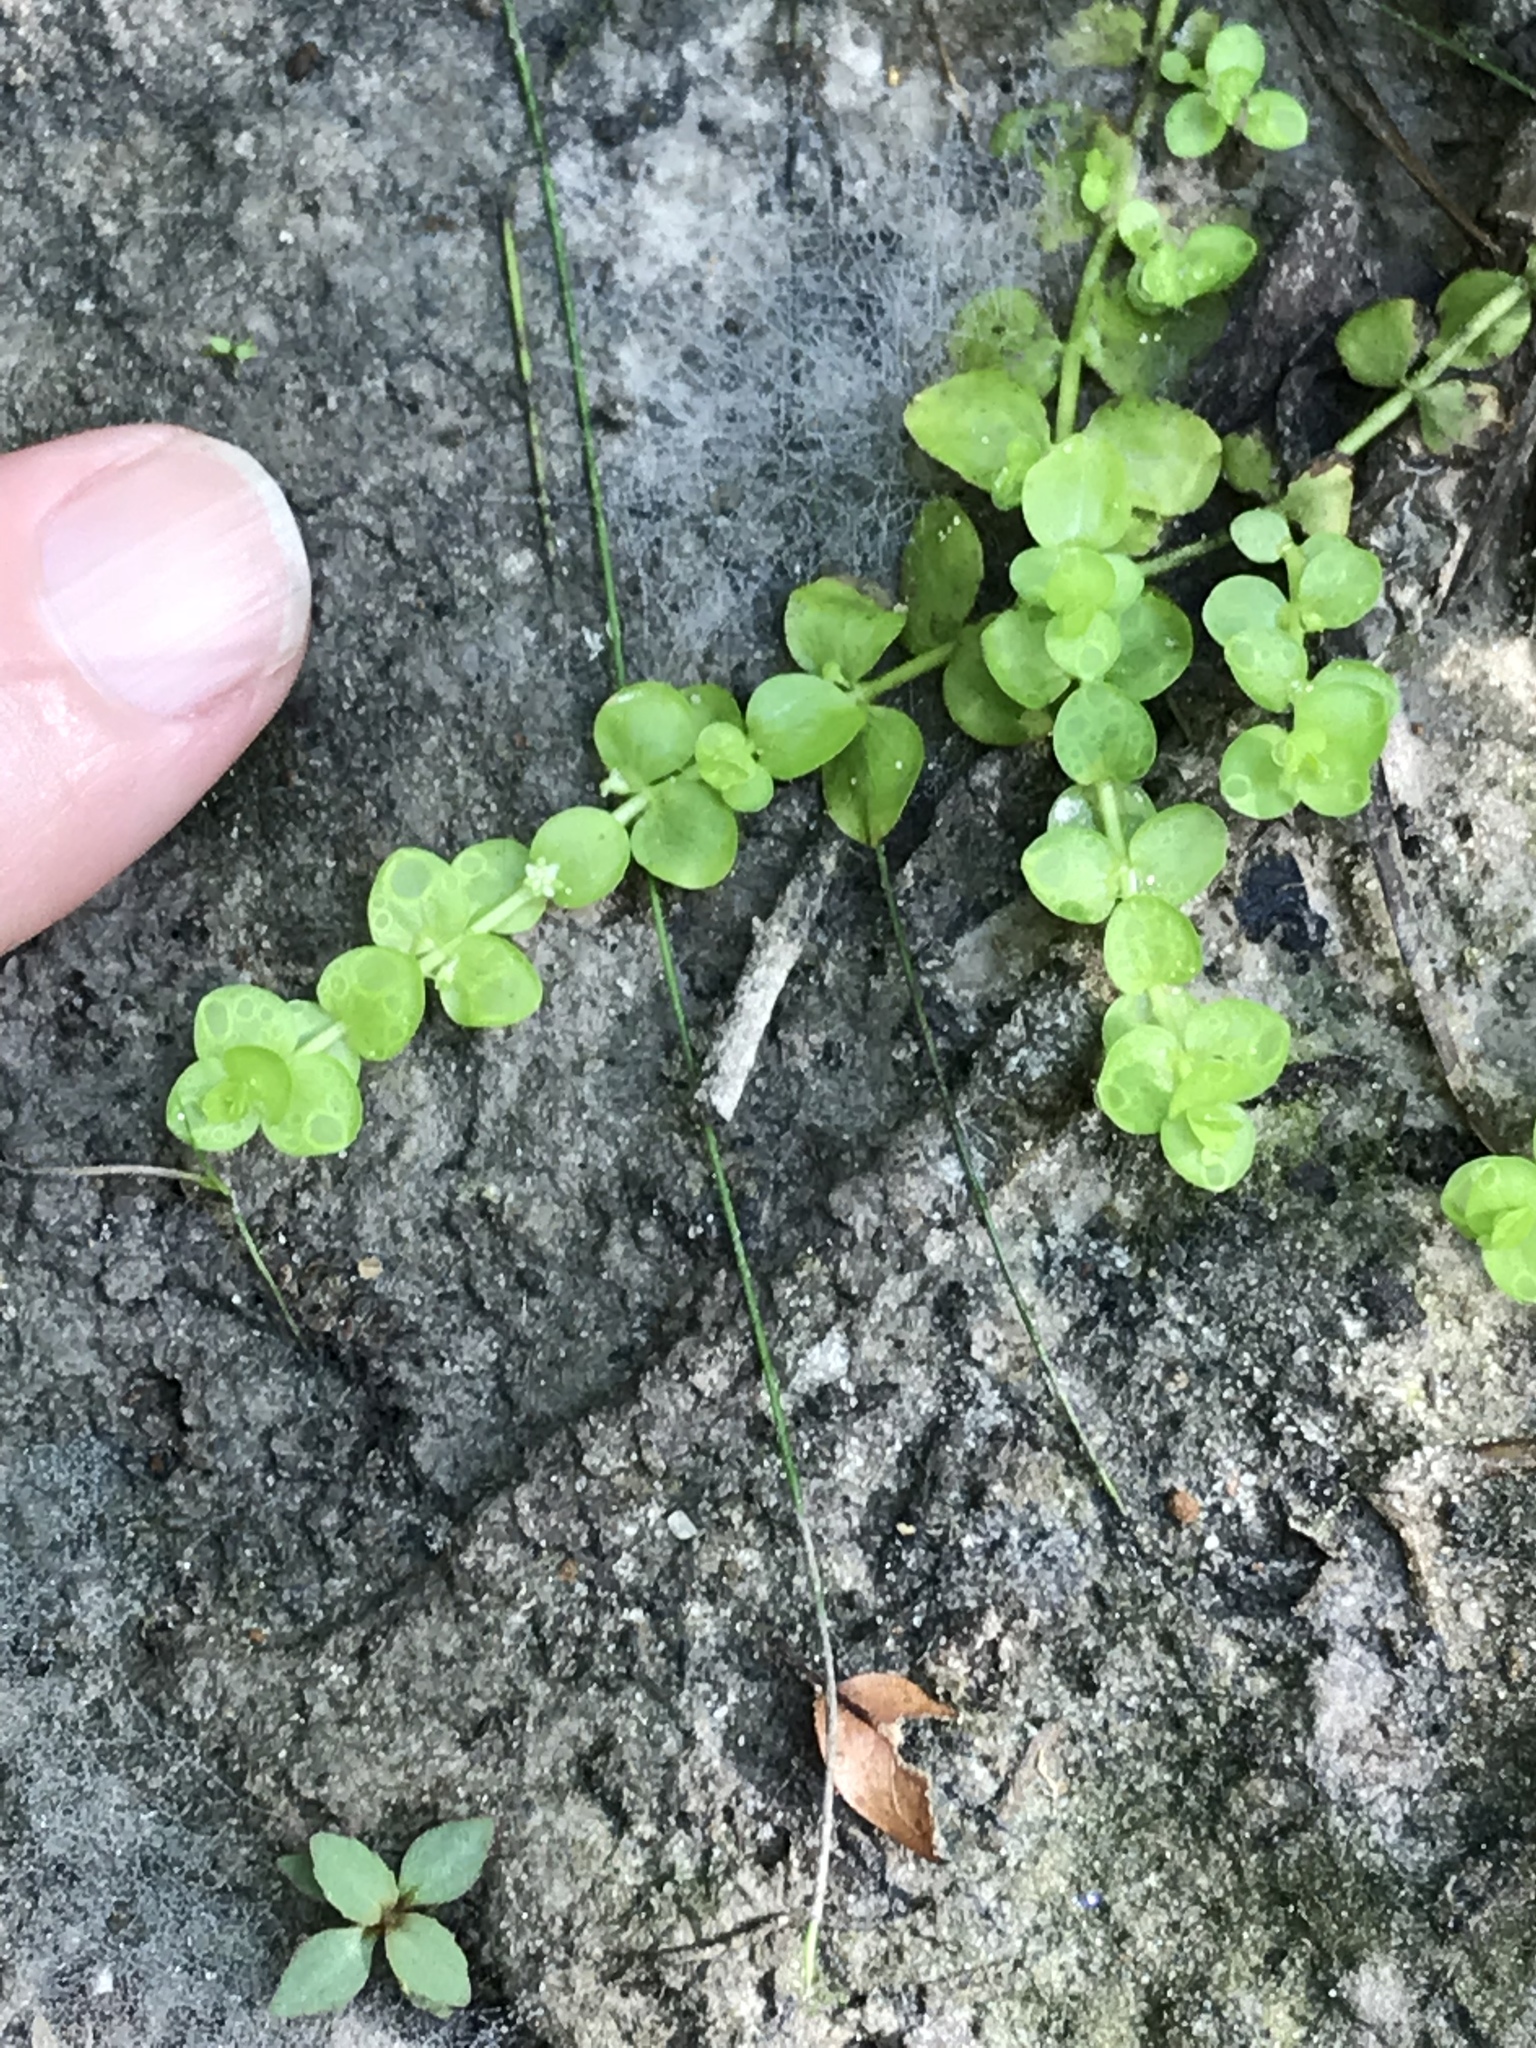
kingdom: Plantae
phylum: Tracheophyta
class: Magnoliopsida
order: Lamiales
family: Linderniaceae
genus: Micranthemum
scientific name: Micranthemum umbrosum
